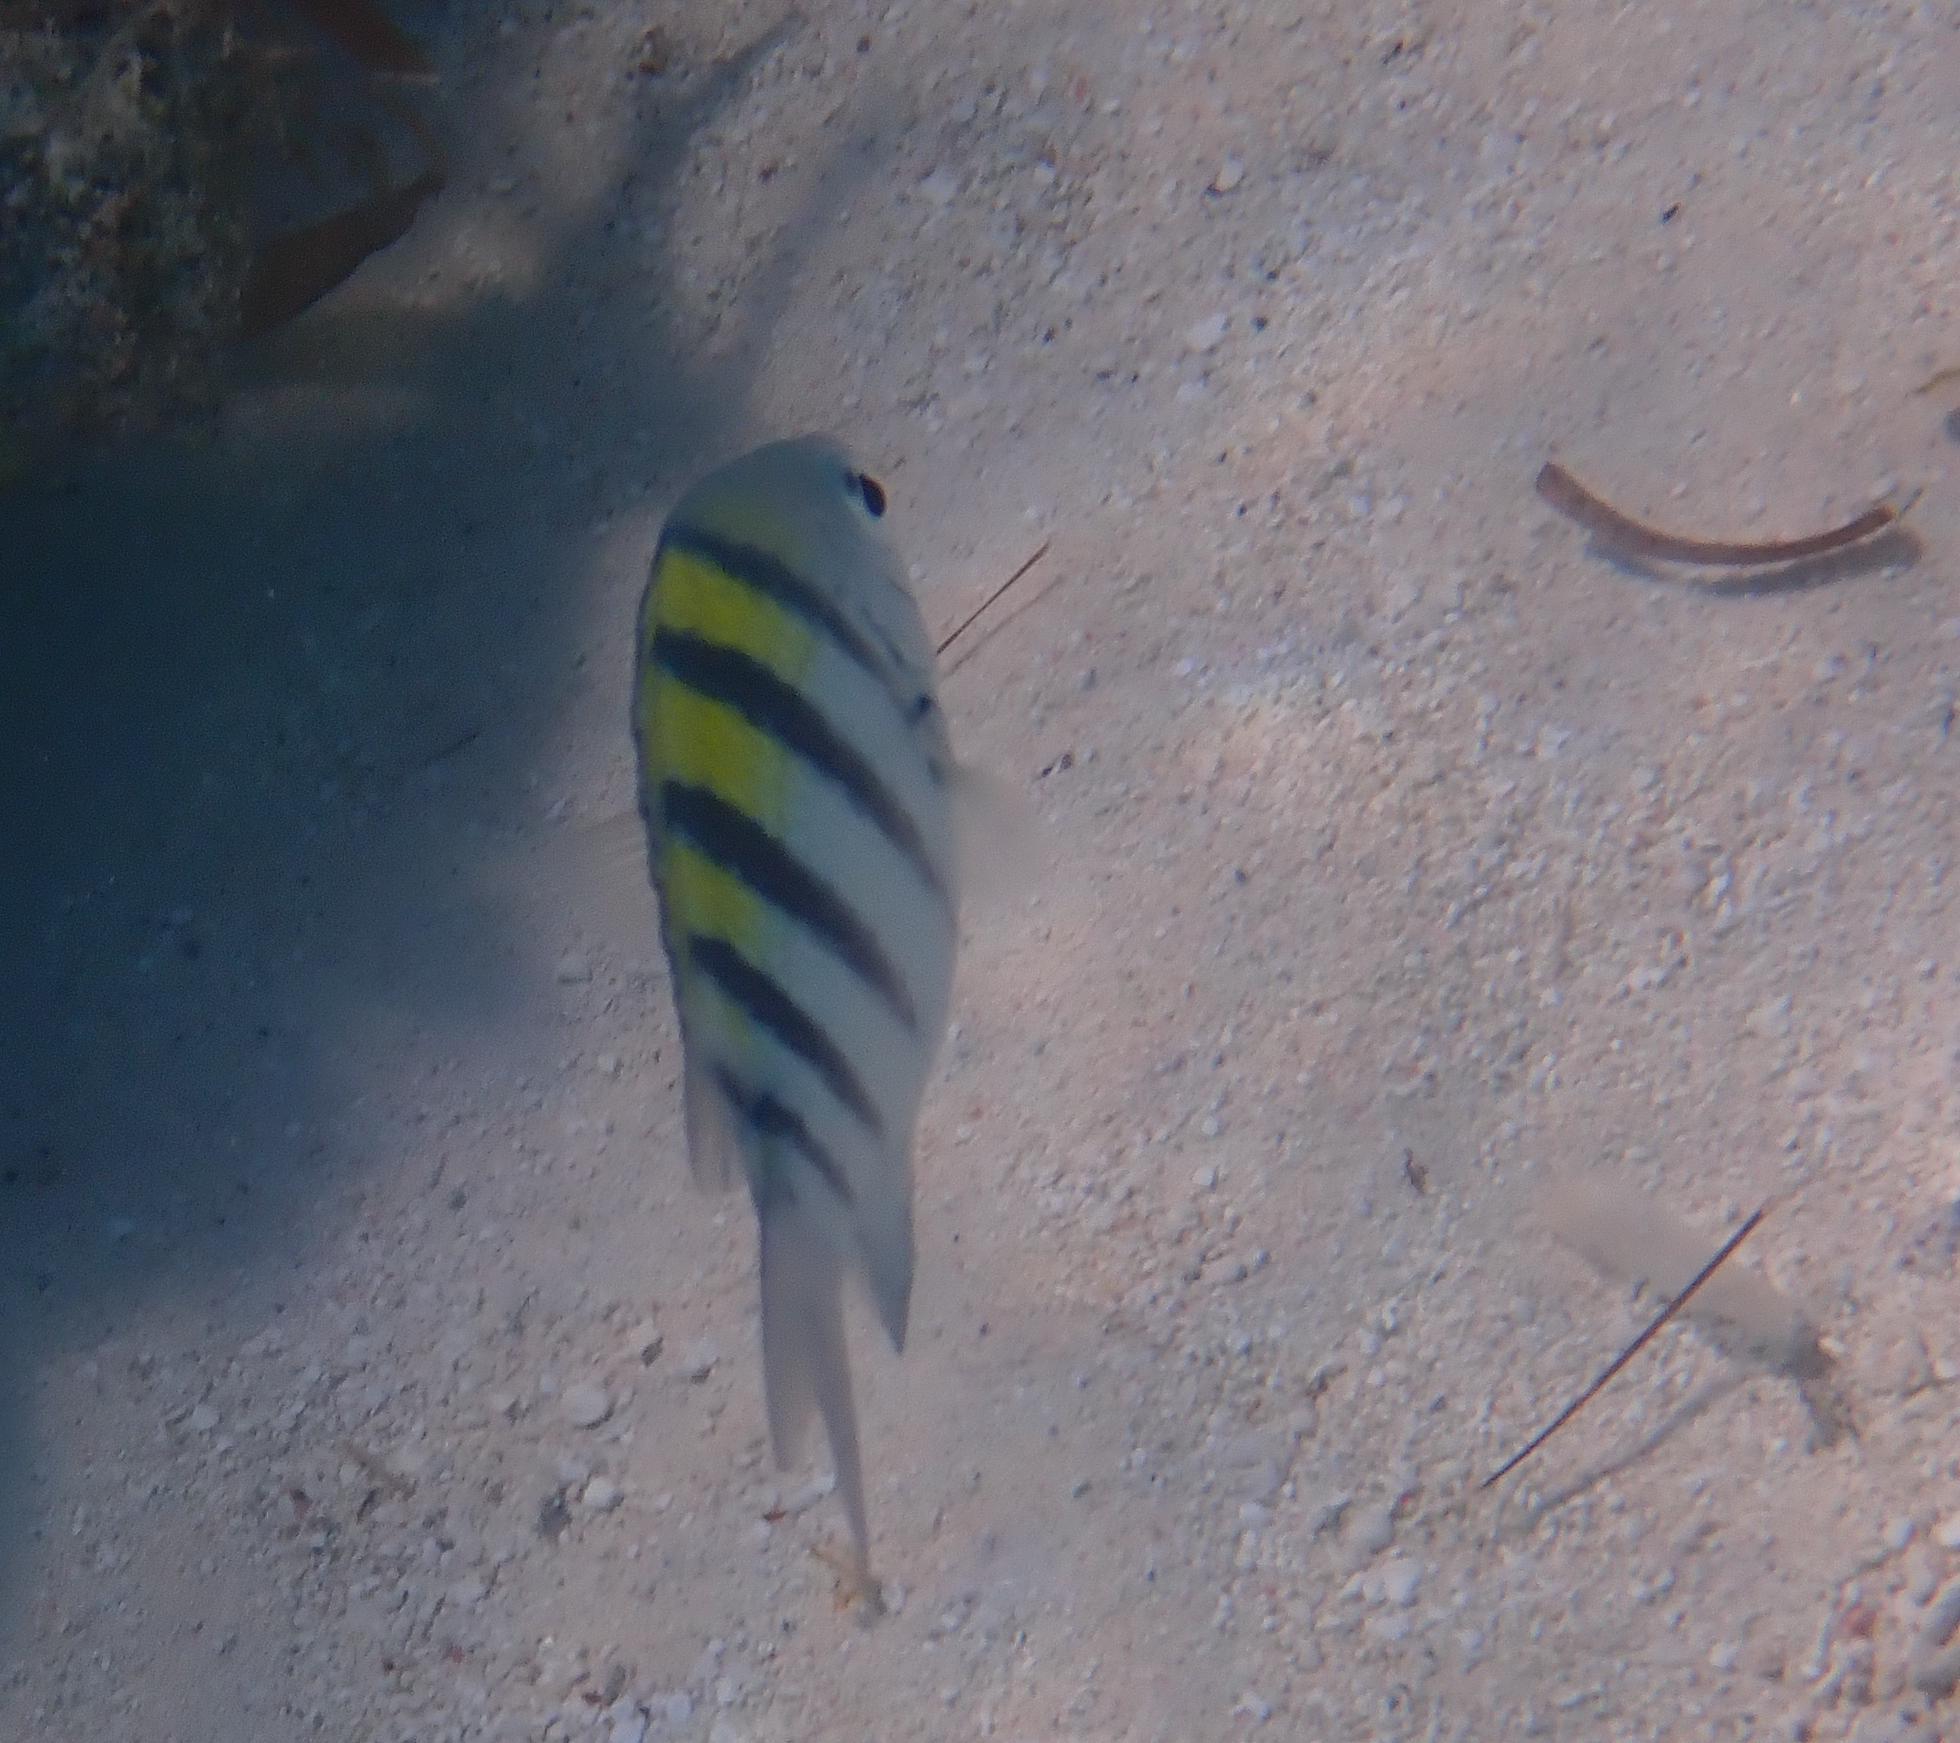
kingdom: Animalia
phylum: Chordata
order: Perciformes
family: Pomacentridae
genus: Abudefduf
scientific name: Abudefduf saxatilis
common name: Sergeant major
